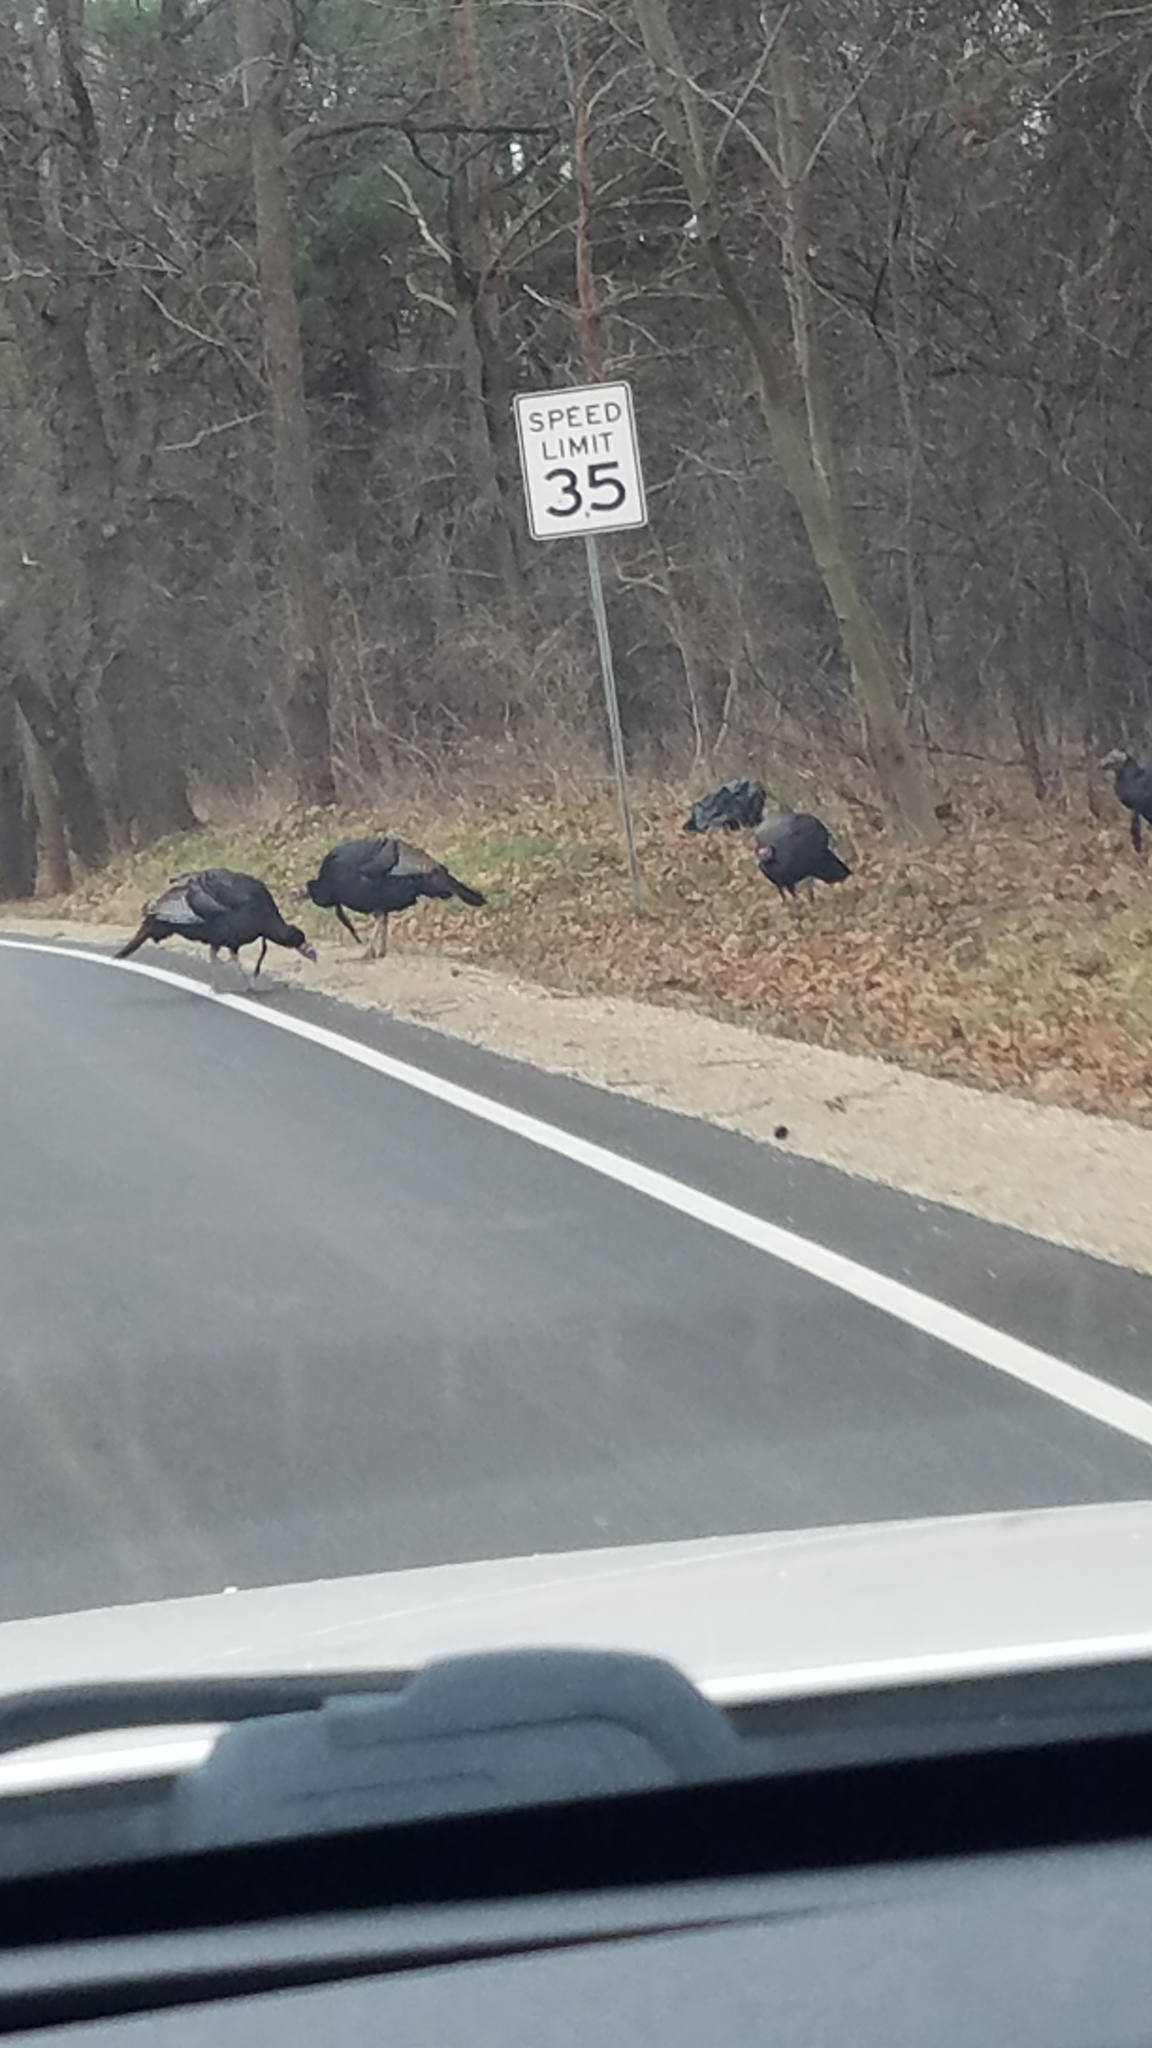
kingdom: Animalia
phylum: Chordata
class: Aves
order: Galliformes
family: Phasianidae
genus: Meleagris
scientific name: Meleagris gallopavo
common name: Wild turkey
